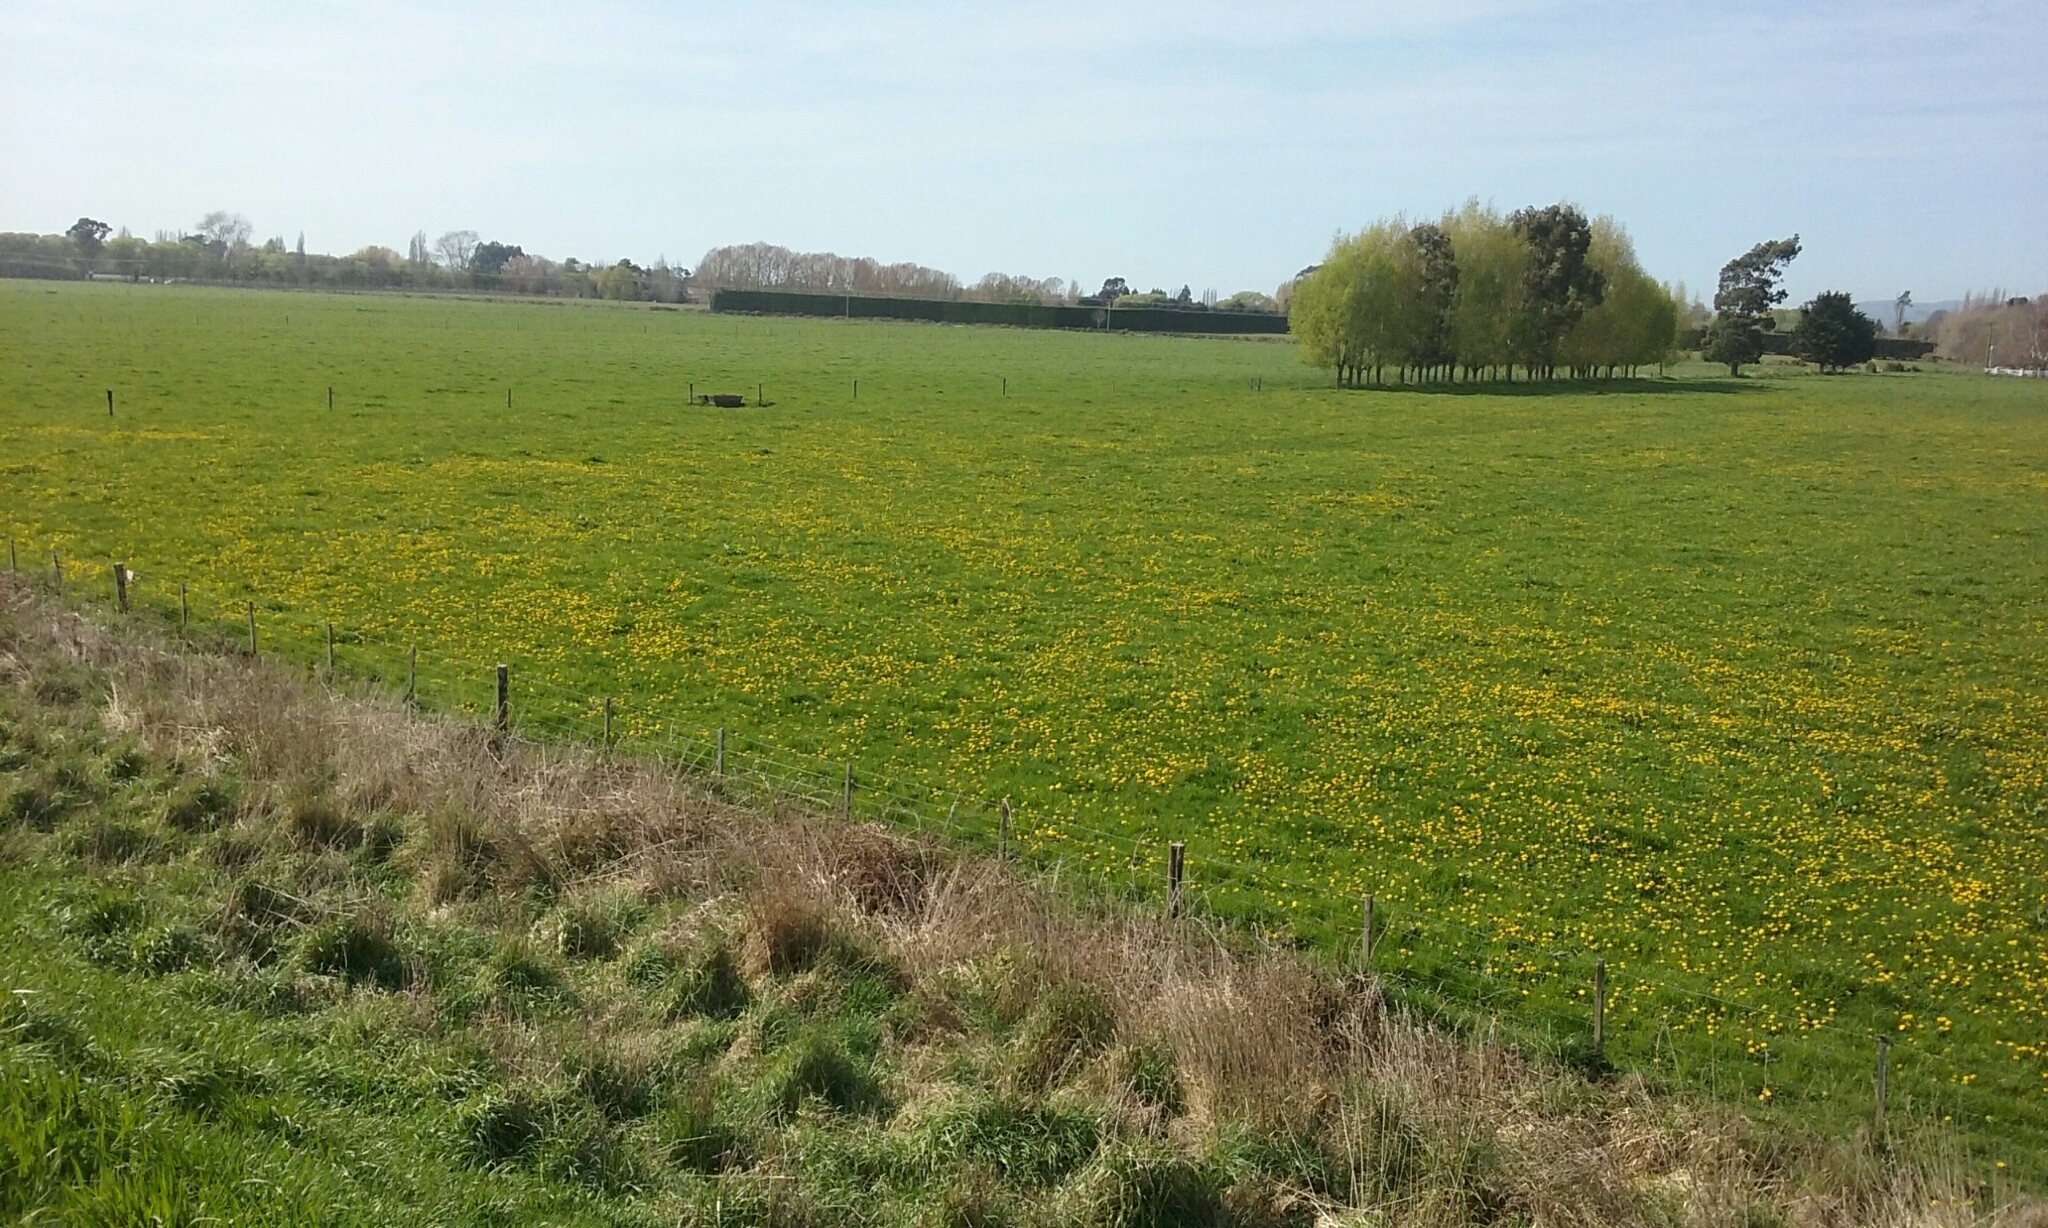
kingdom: Plantae
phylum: Tracheophyta
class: Magnoliopsida
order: Asterales
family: Asteraceae
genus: Taraxacum
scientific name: Taraxacum officinale
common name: Common dandelion
